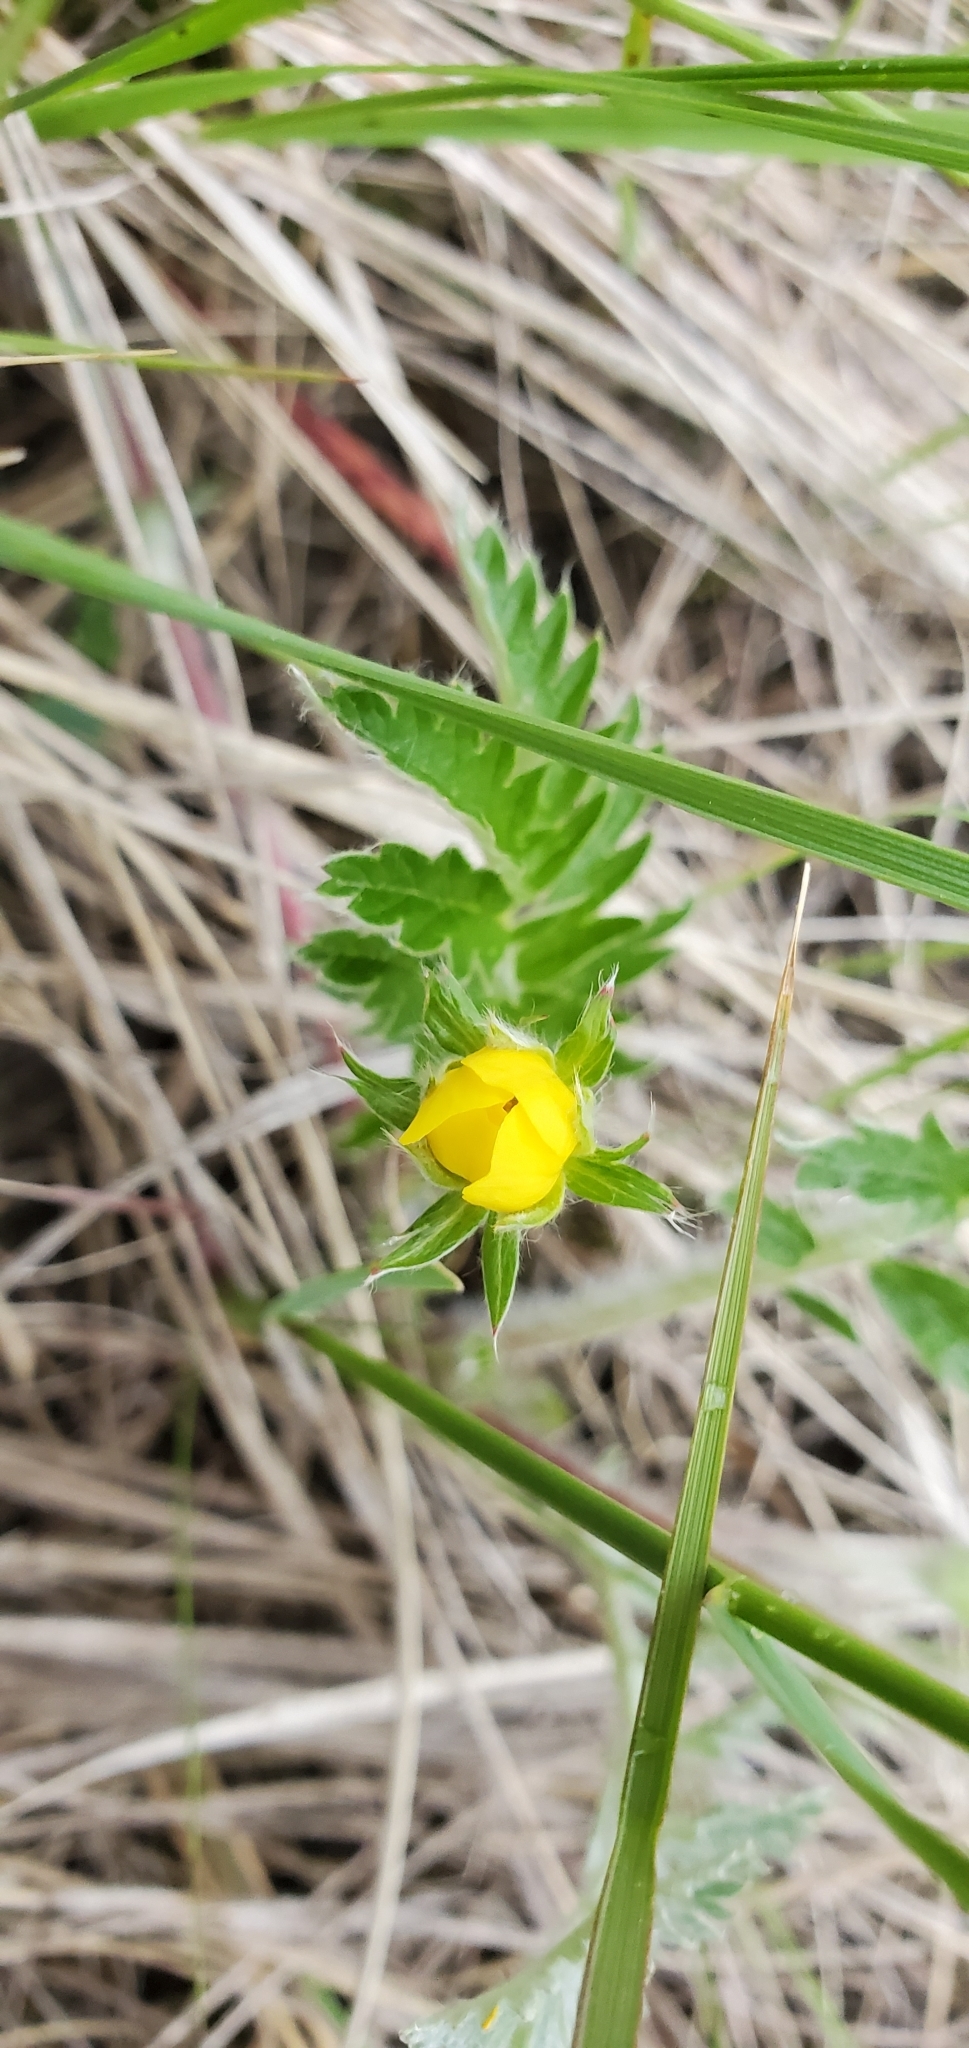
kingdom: Plantae
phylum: Tracheophyta
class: Magnoliopsida
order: Rosales
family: Rosaceae
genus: Argentina
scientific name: Argentina anserina
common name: Common silverweed
